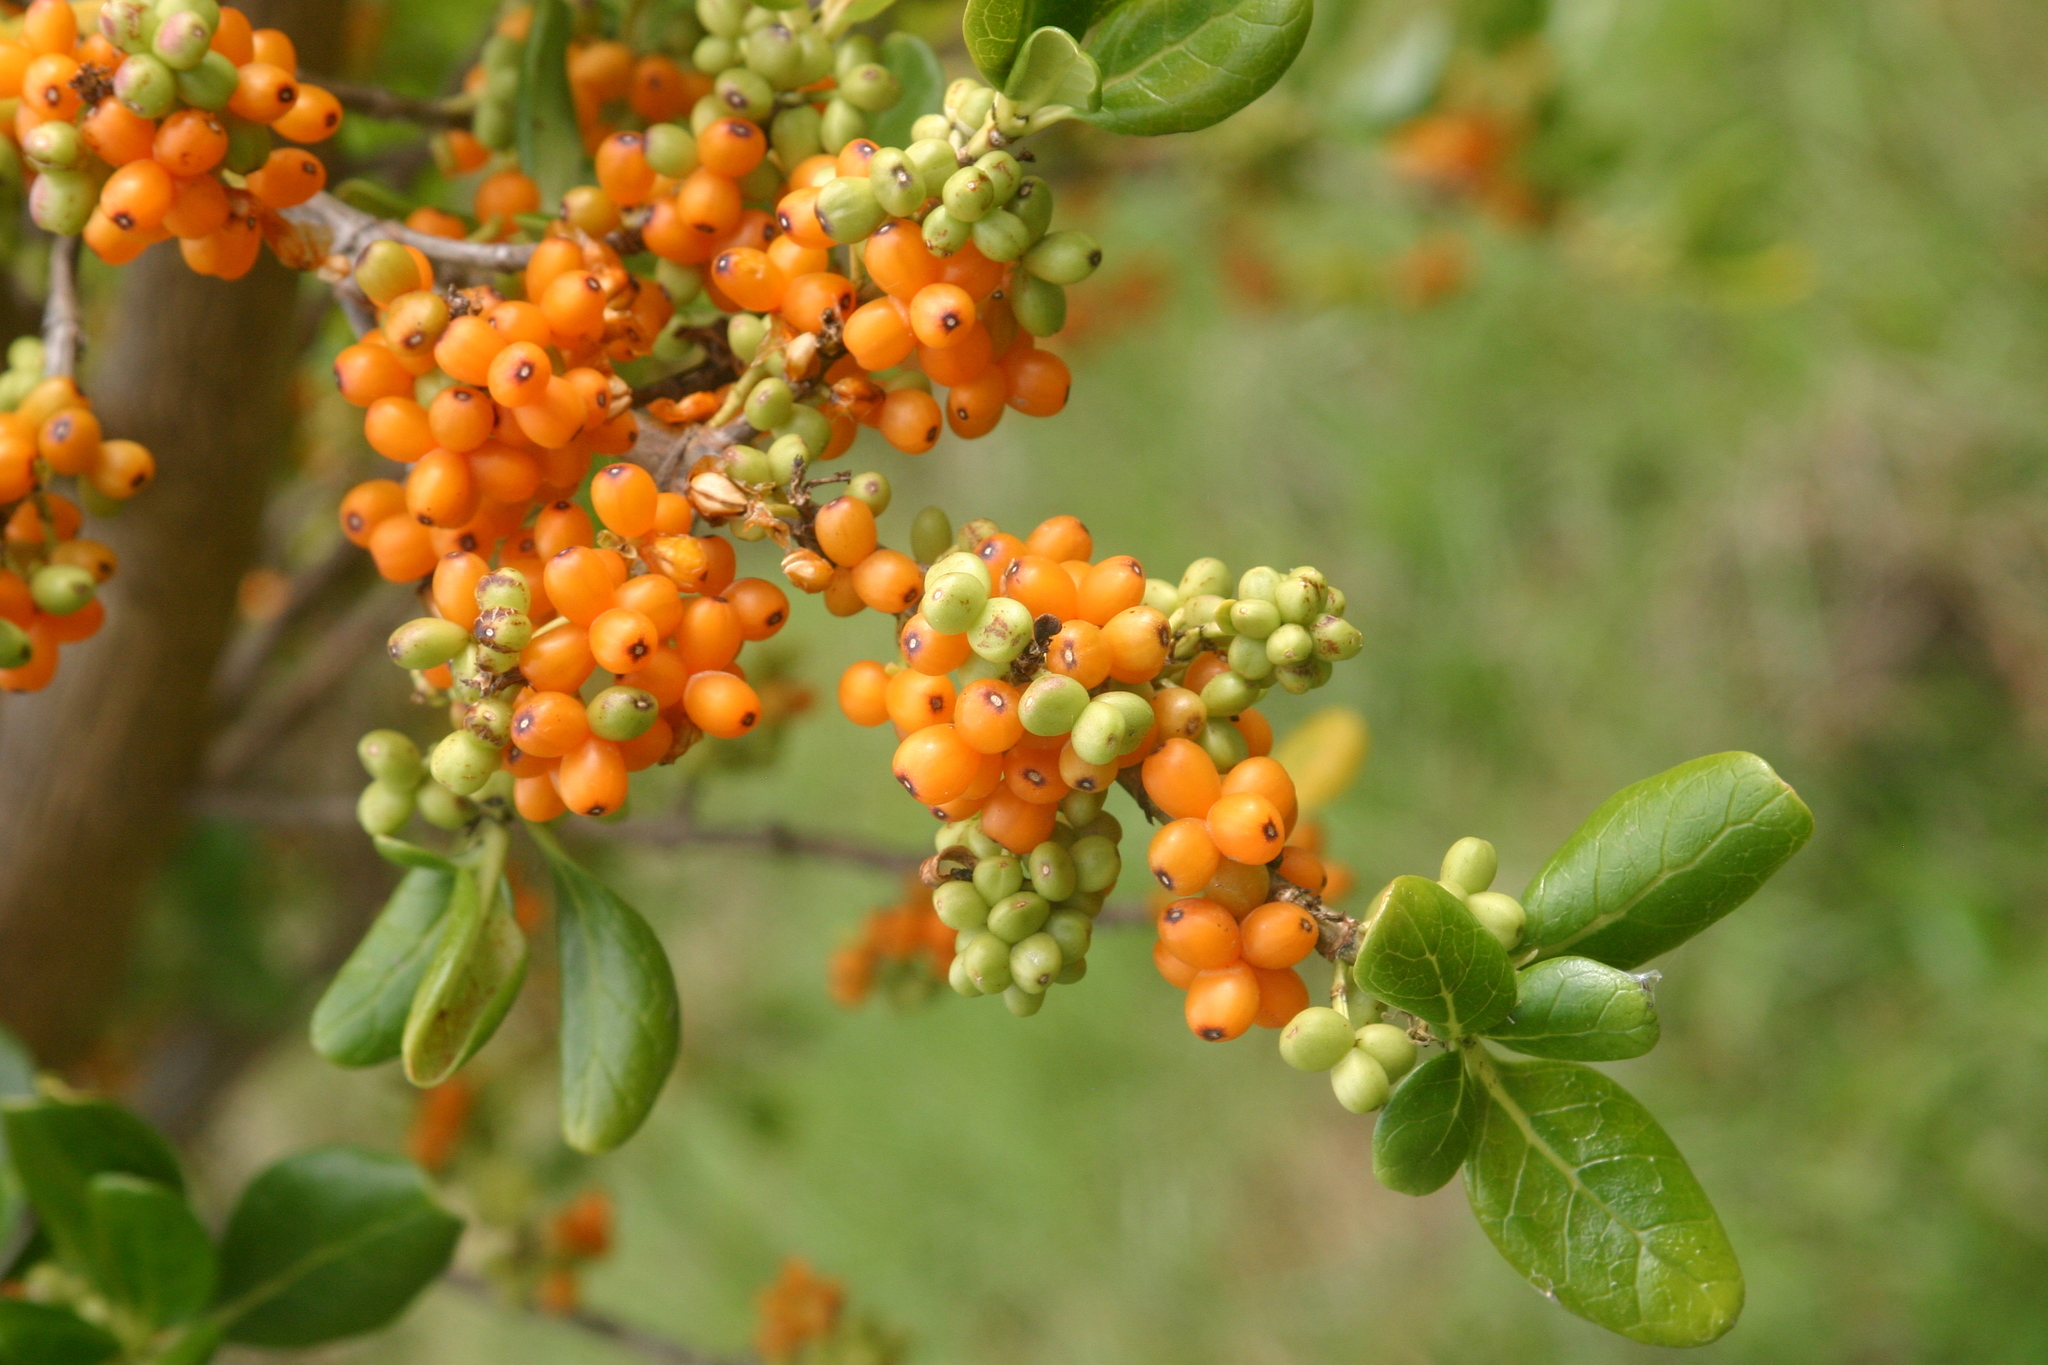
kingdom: Plantae
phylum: Tracheophyta
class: Magnoliopsida
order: Gentianales
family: Rubiaceae
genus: Coprosma
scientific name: Coprosma repens
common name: Tree bedstraw
